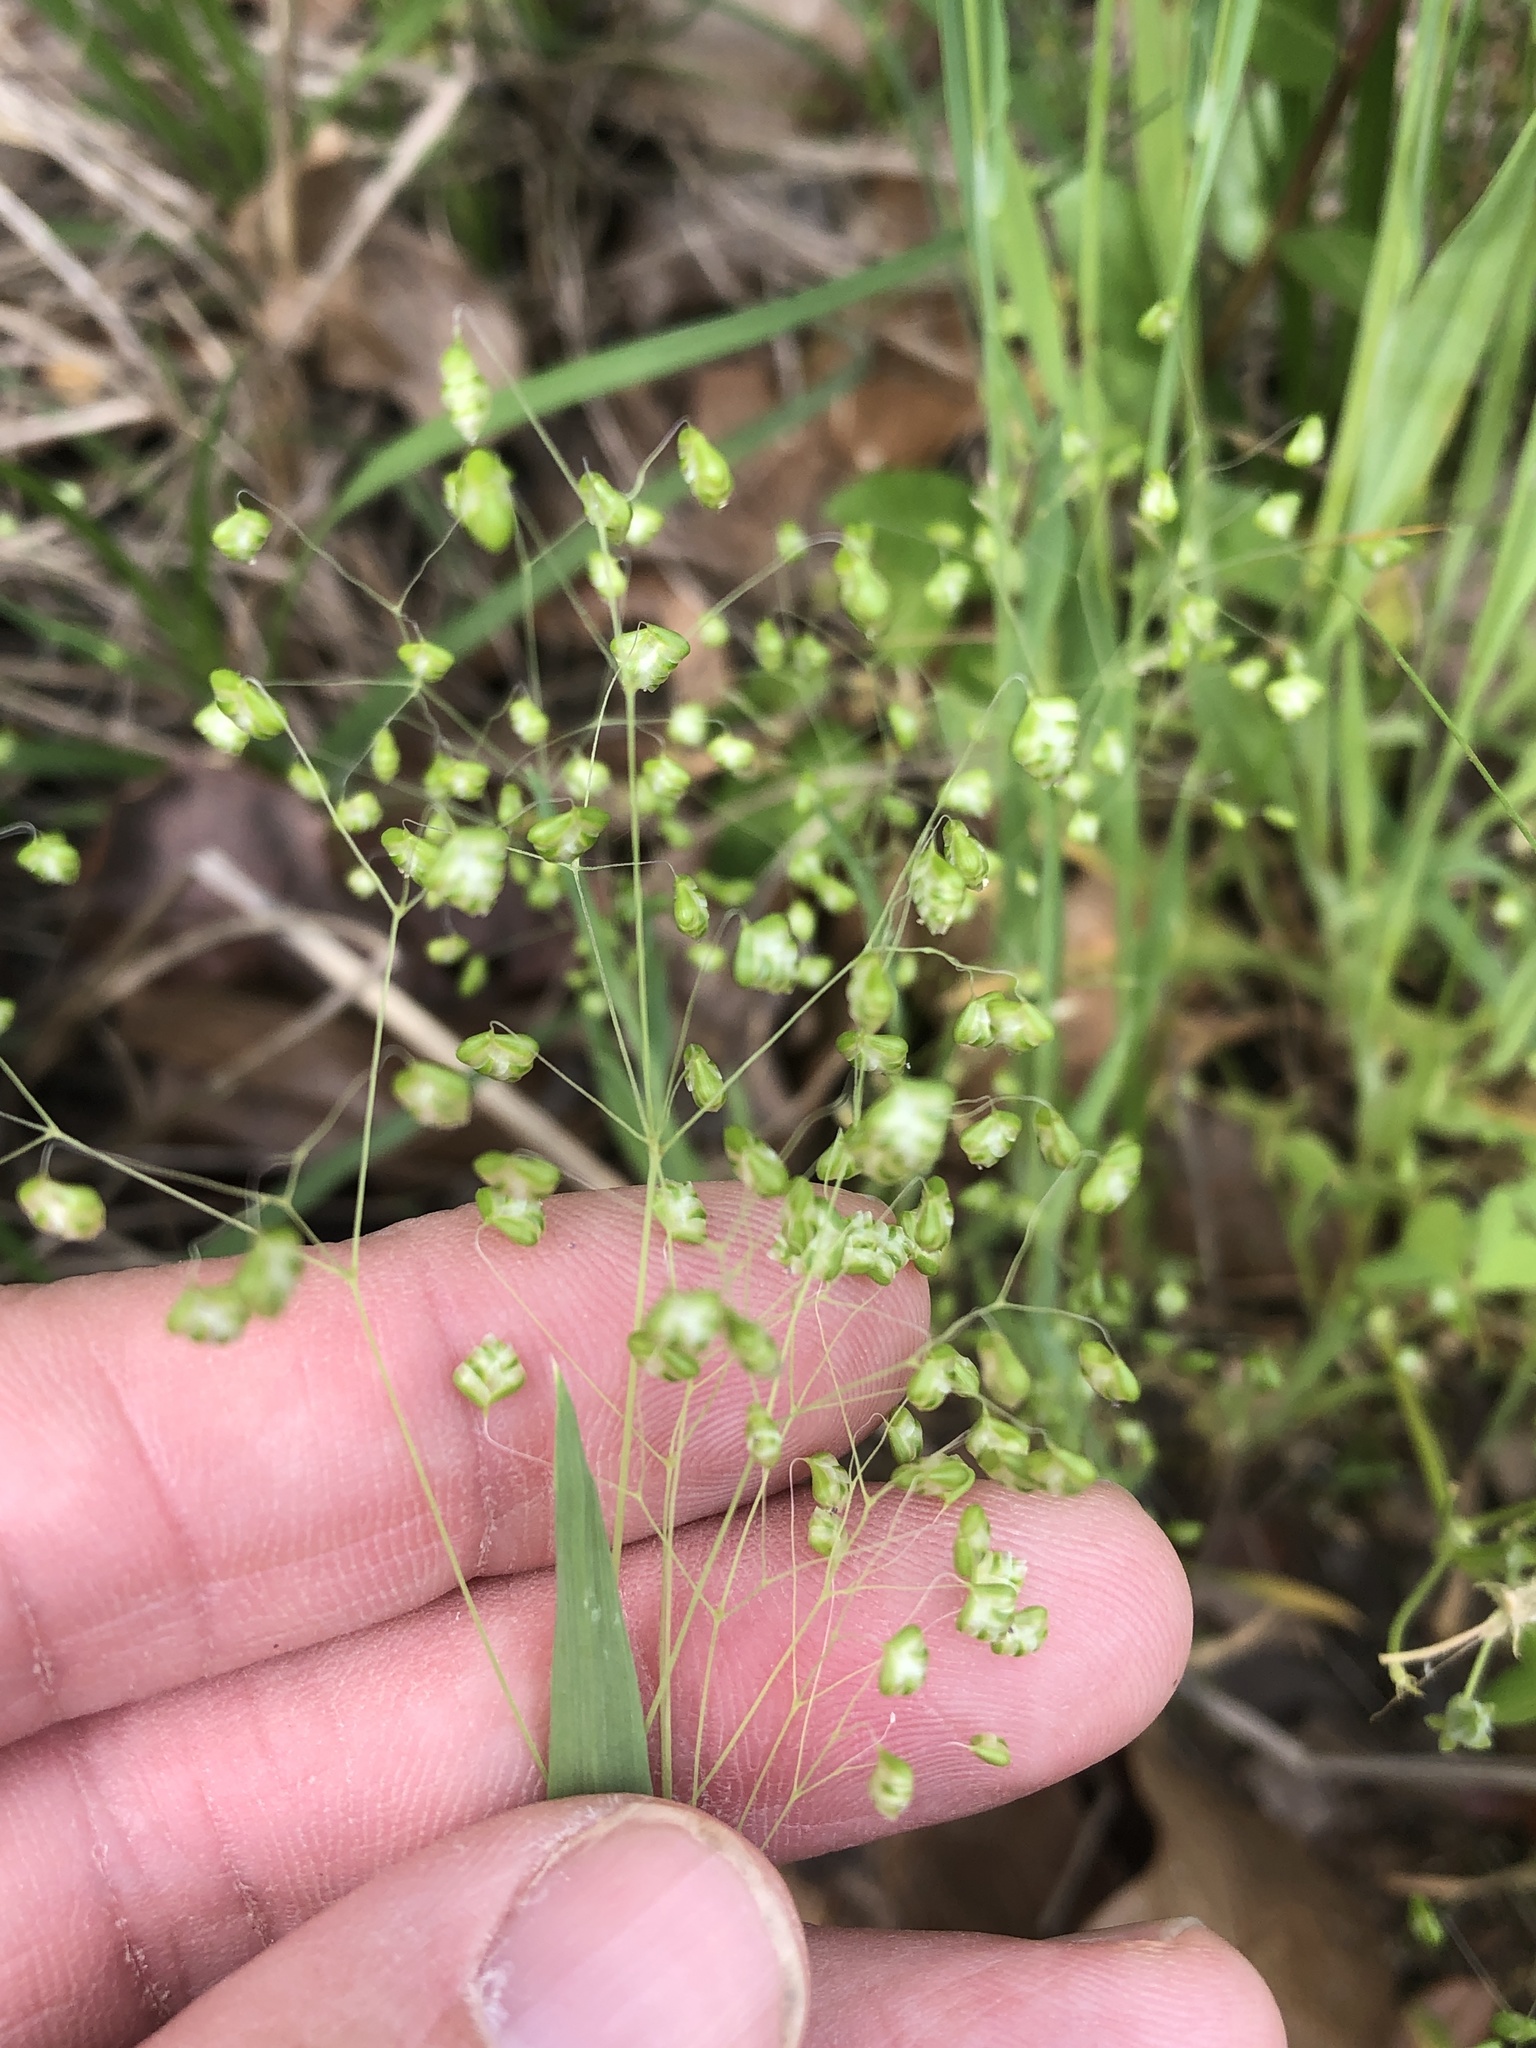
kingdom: Plantae
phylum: Tracheophyta
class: Liliopsida
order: Poales
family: Poaceae
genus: Briza
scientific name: Briza minor
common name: Lesser quaking-grass
